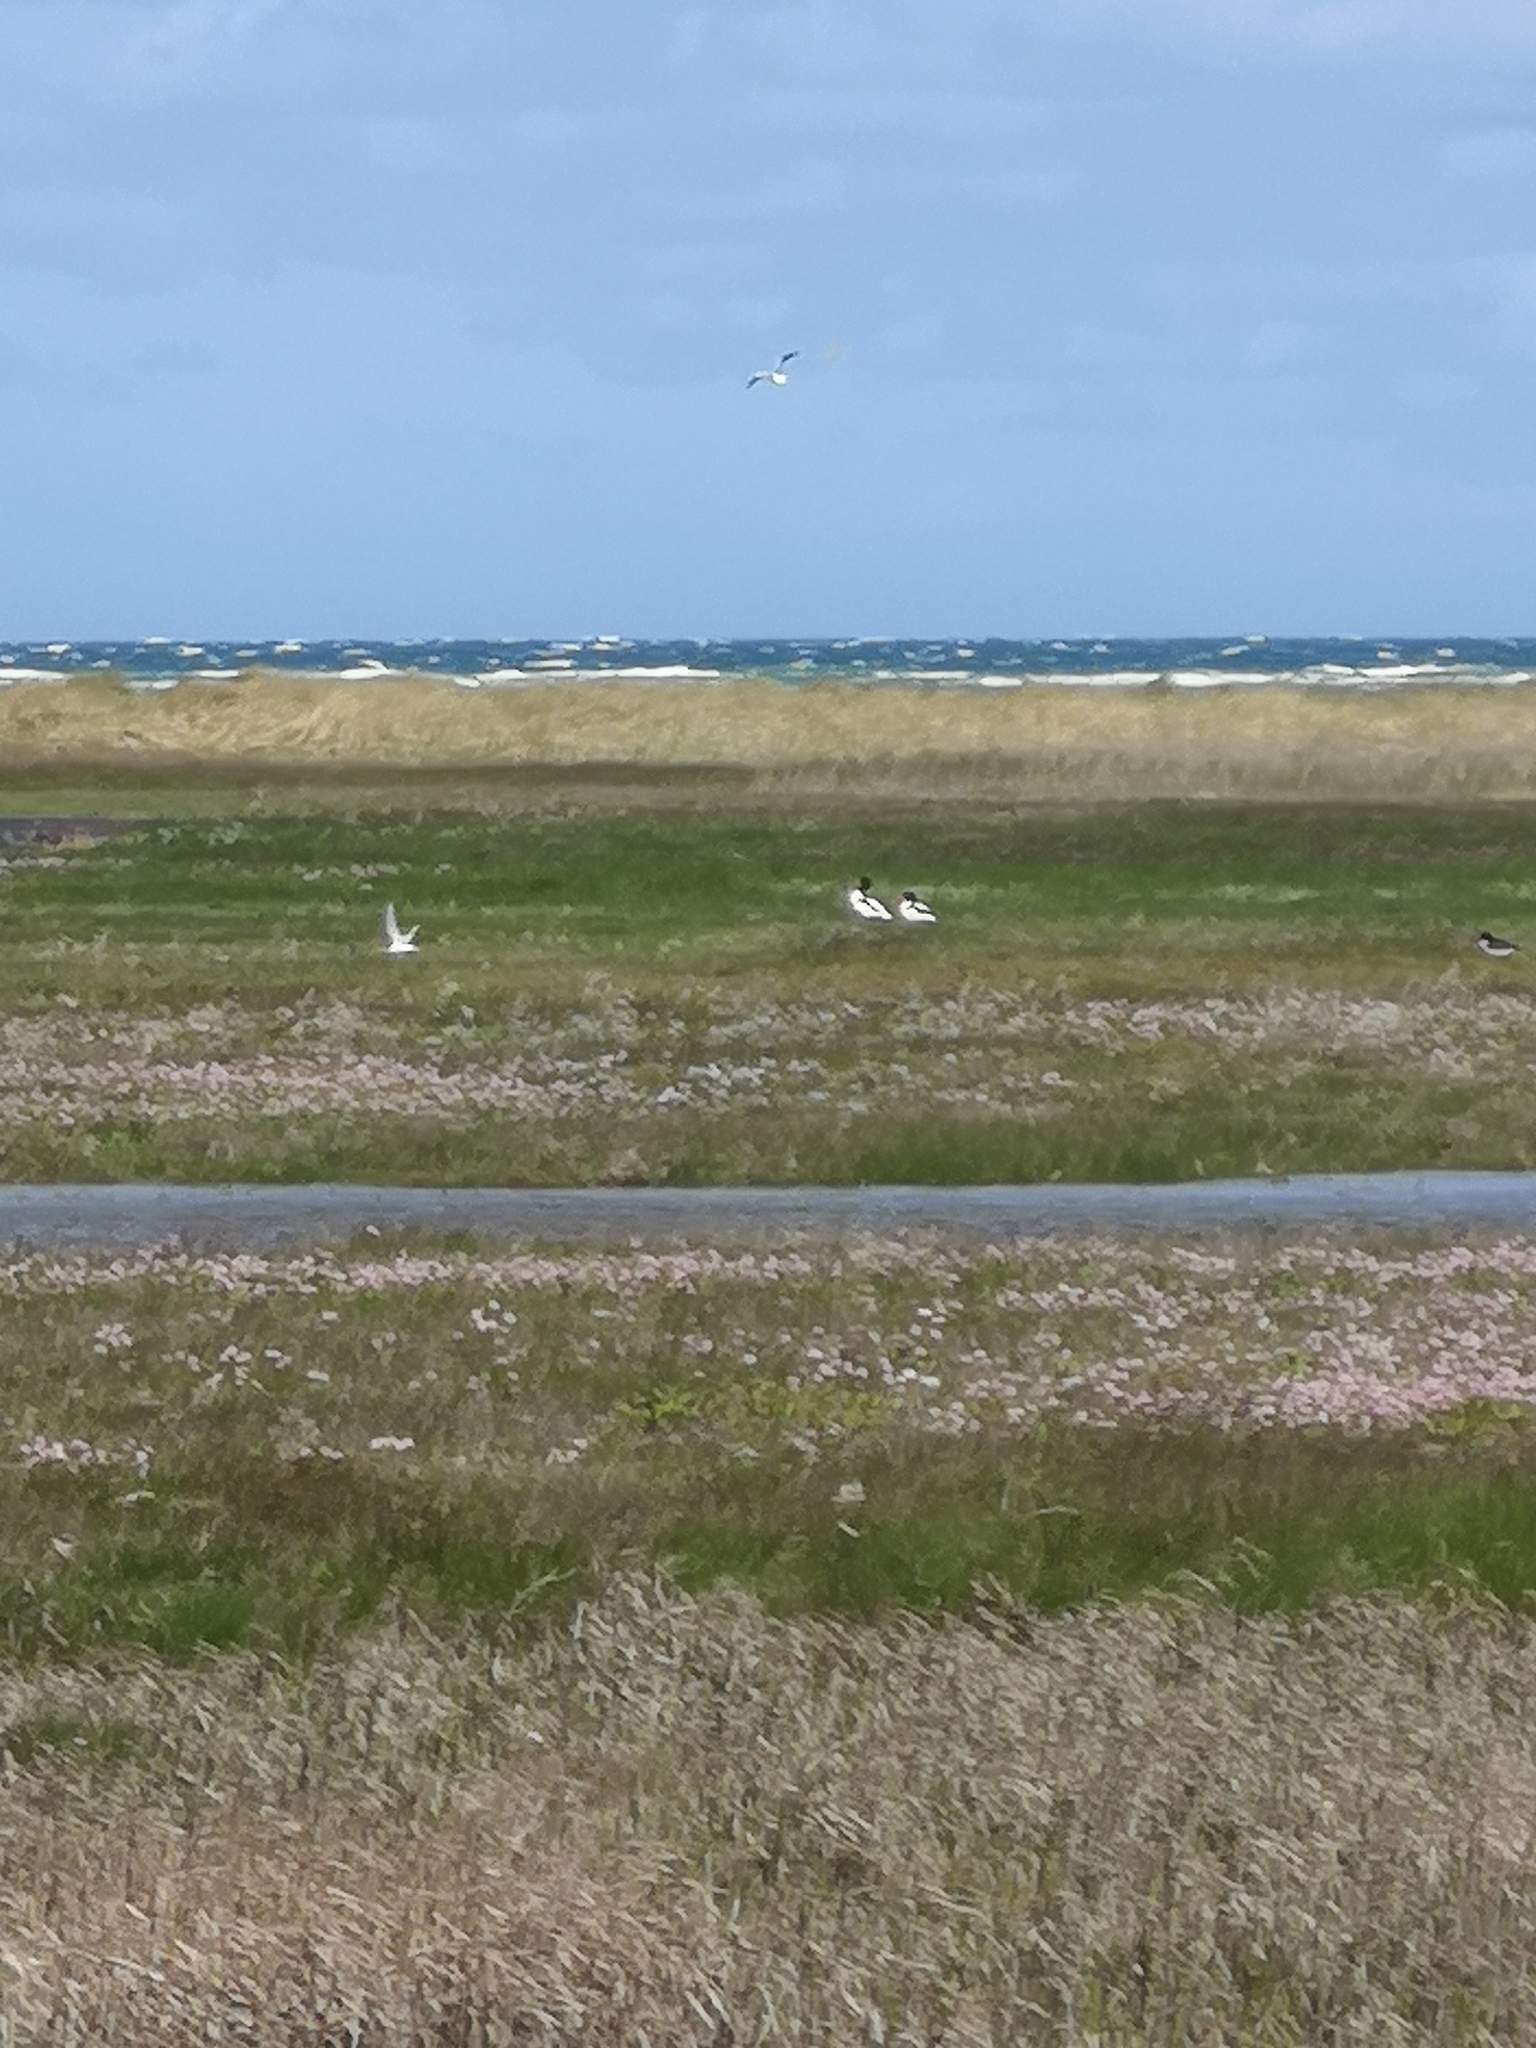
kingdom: Animalia
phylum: Chordata
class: Aves
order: Anseriformes
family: Anatidae
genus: Tadorna
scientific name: Tadorna tadorna
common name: Common shelduck
